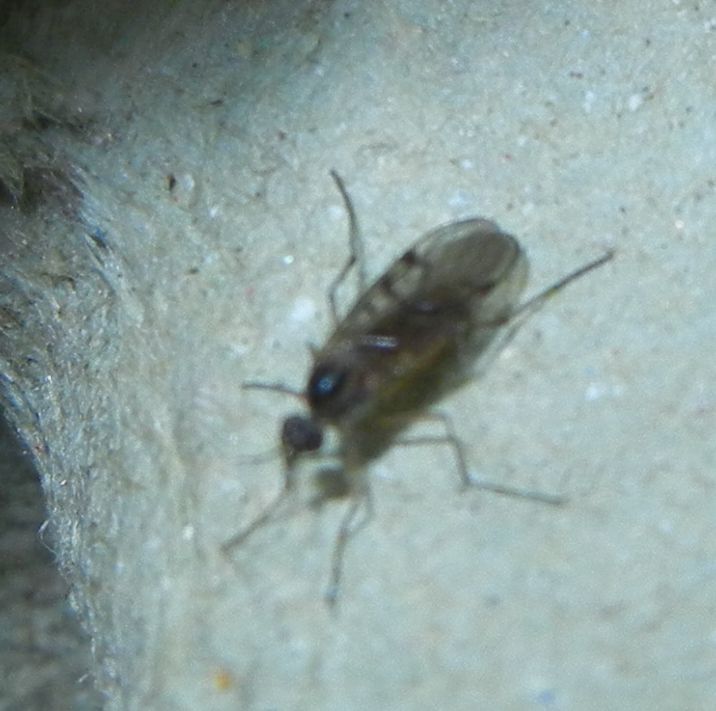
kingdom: Animalia
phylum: Arthropoda
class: Insecta
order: Diptera
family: Anisopodidae
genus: Sylvicola
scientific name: Sylvicola punctatus
